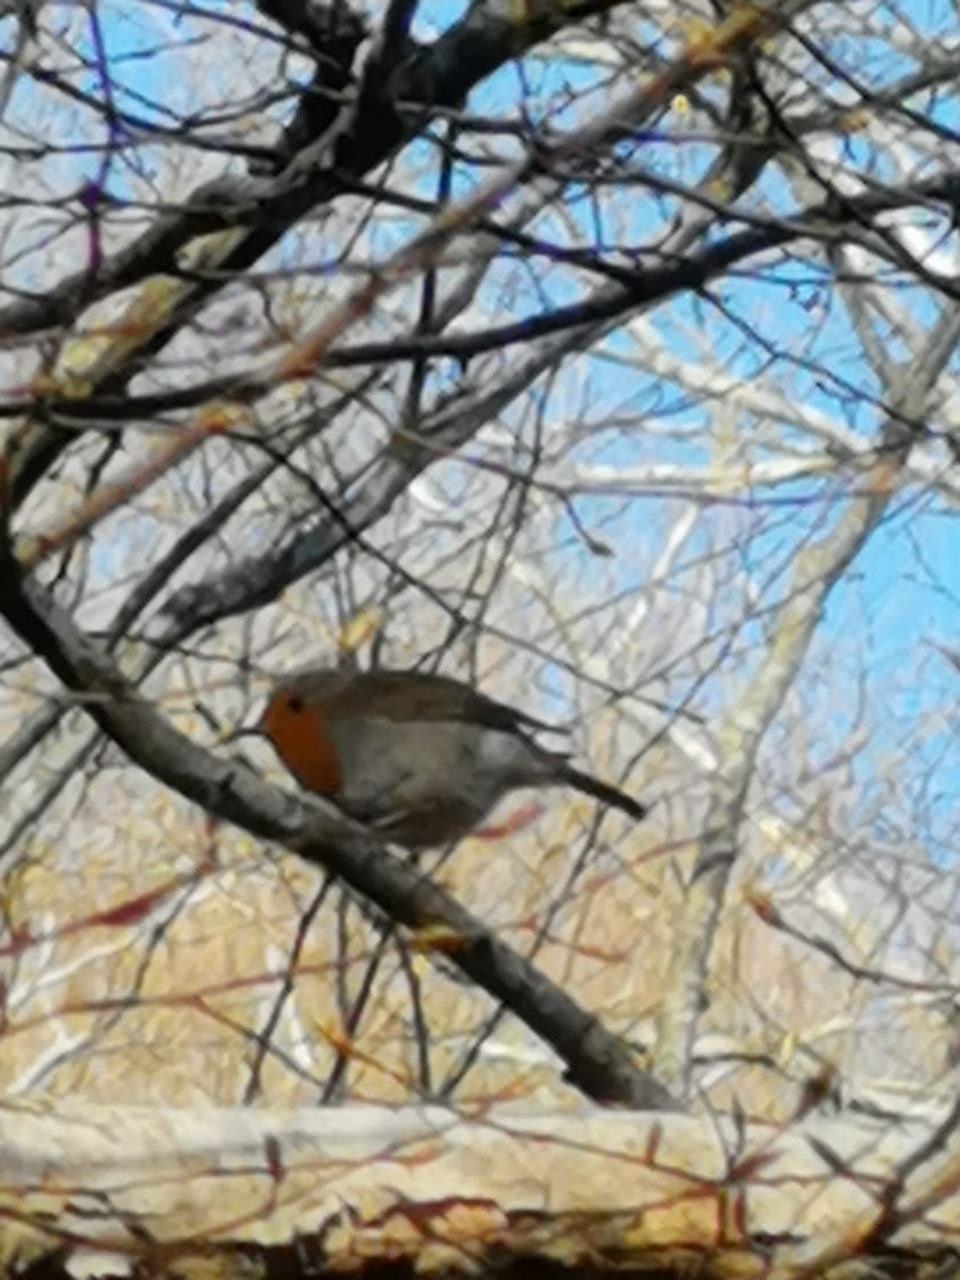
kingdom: Animalia
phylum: Chordata
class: Aves
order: Passeriformes
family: Muscicapidae
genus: Erithacus
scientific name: Erithacus rubecula
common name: European robin
